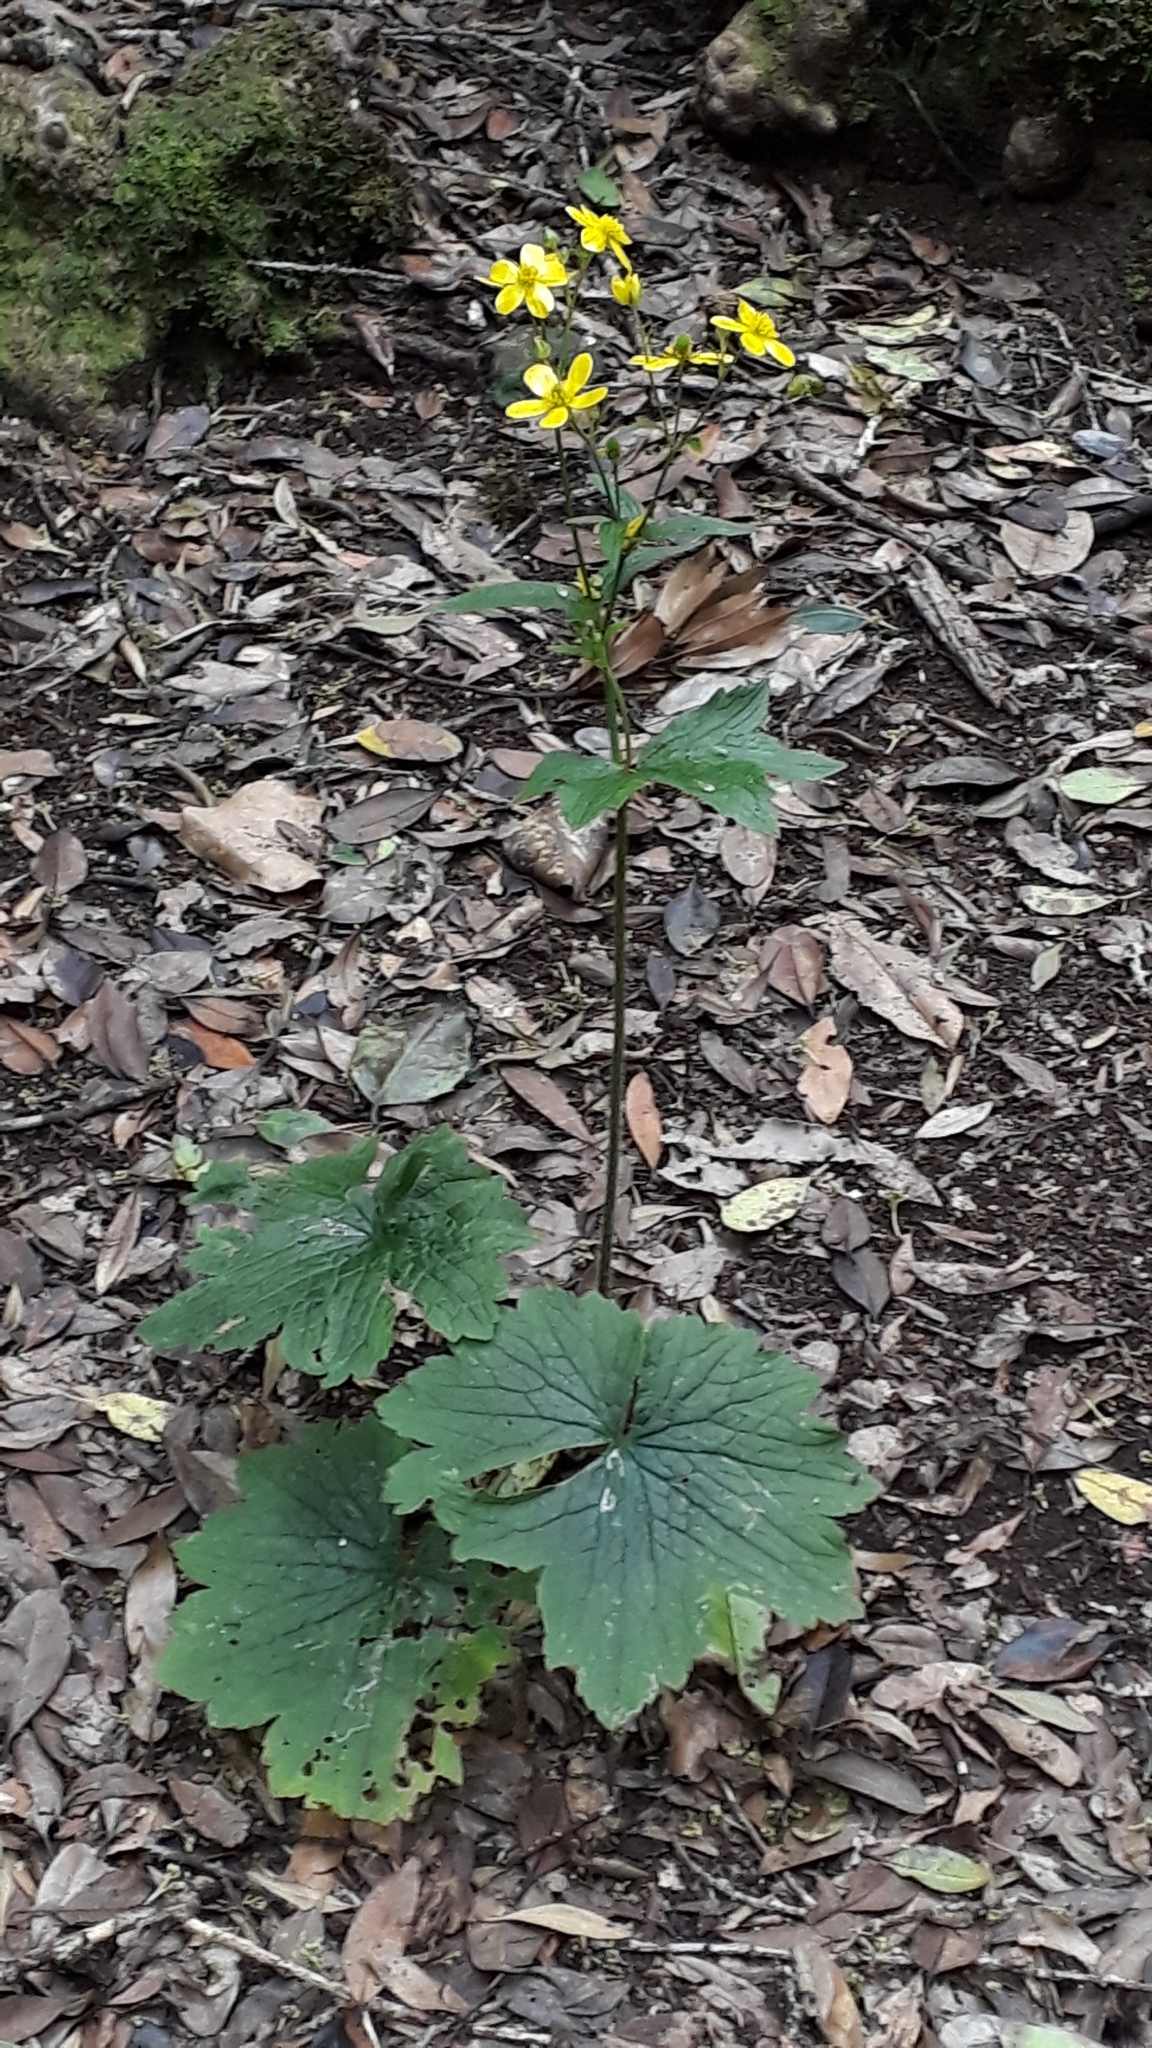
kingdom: Plantae
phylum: Tracheophyta
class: Magnoliopsida
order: Ranunculales
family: Ranunculaceae
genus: Ranunculus
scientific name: Ranunculus cortusifolius
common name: Azores buttercup
